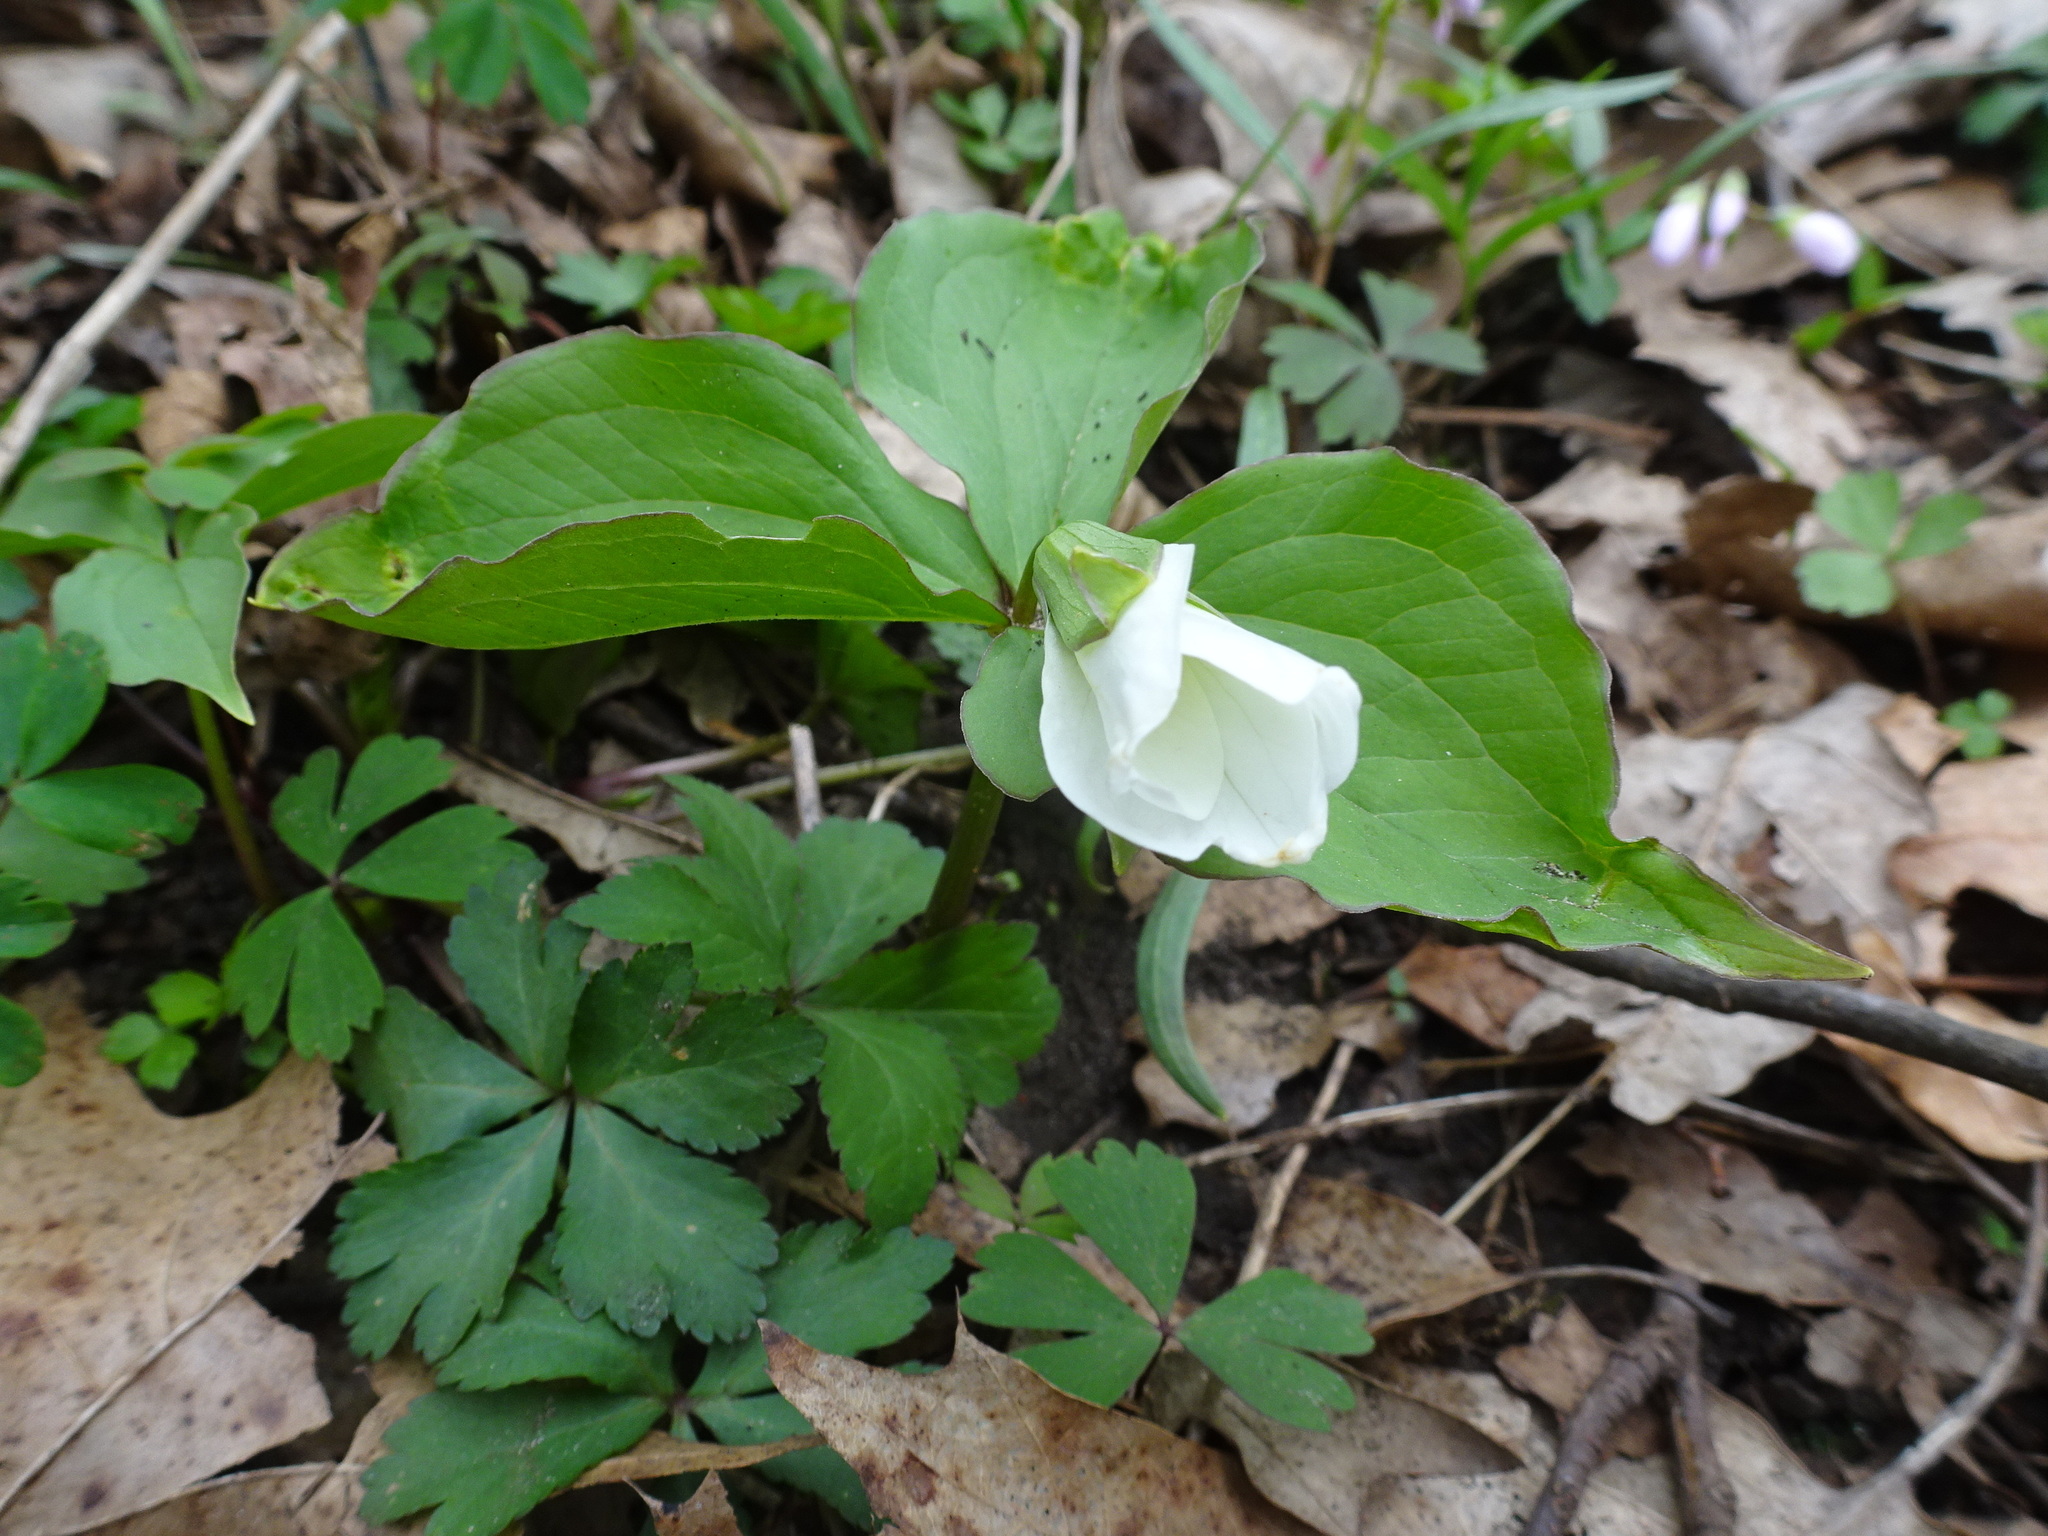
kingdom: Plantae
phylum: Tracheophyta
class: Liliopsida
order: Liliales
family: Melanthiaceae
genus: Trillium
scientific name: Trillium grandiflorum
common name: Great white trillium
